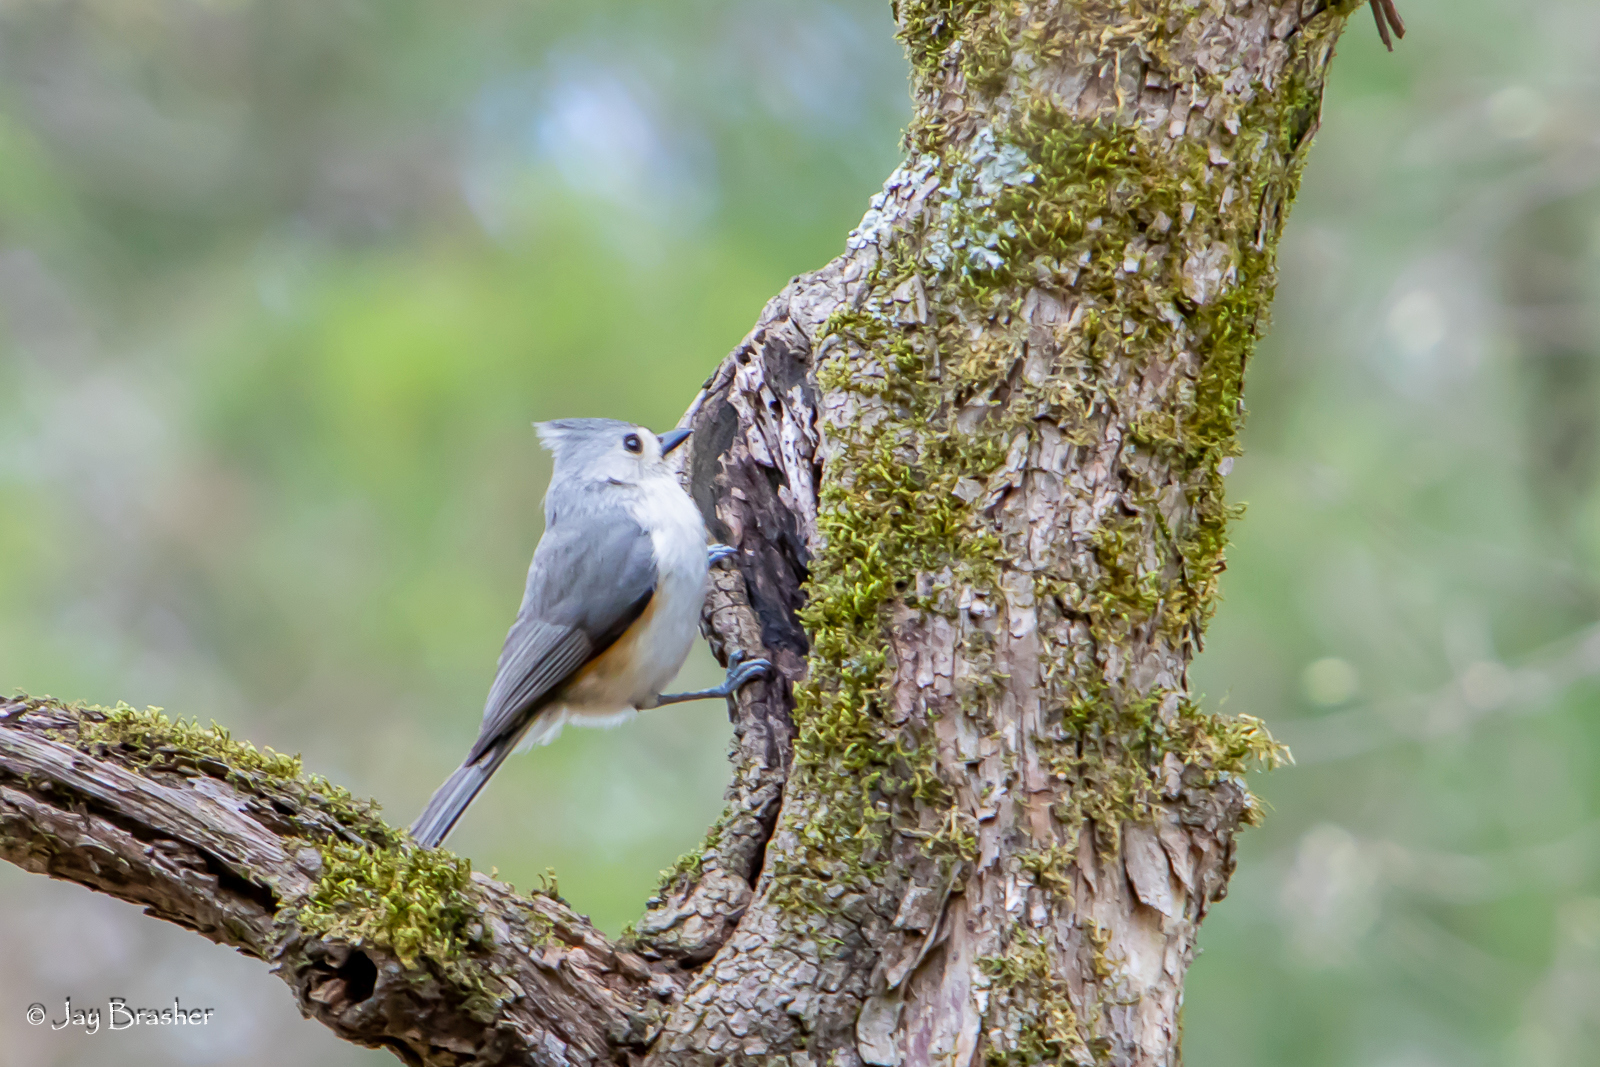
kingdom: Animalia
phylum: Chordata
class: Aves
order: Passeriformes
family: Paridae
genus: Baeolophus
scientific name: Baeolophus bicolor
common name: Tufted titmouse
